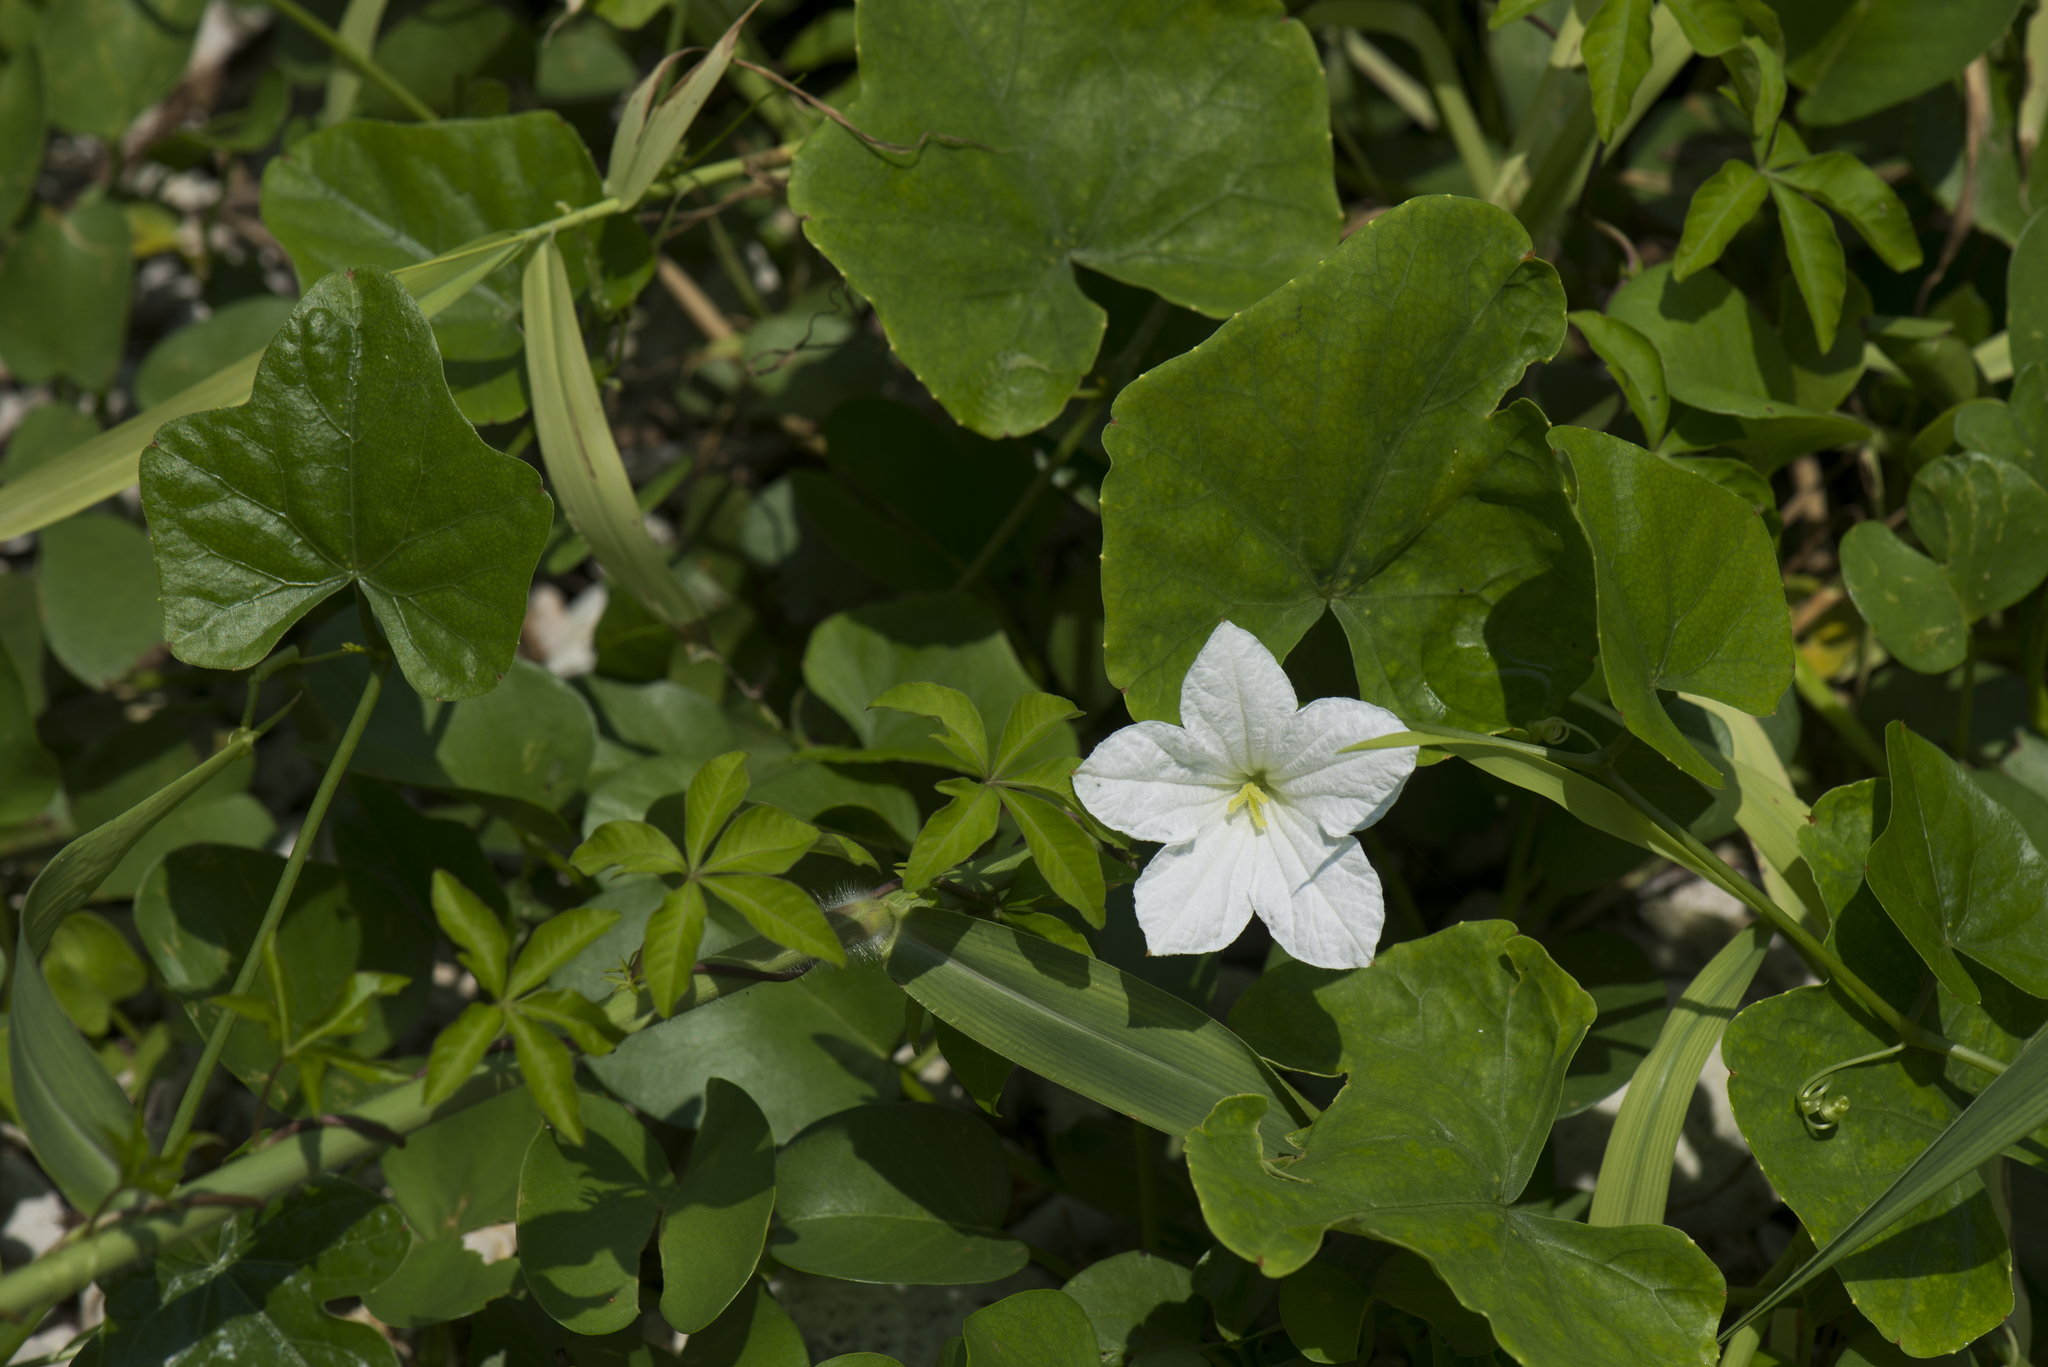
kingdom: Plantae
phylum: Tracheophyta
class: Magnoliopsida
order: Cucurbitales
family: Cucurbitaceae
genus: Coccinia
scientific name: Coccinia grandis
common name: Ivy gourd
